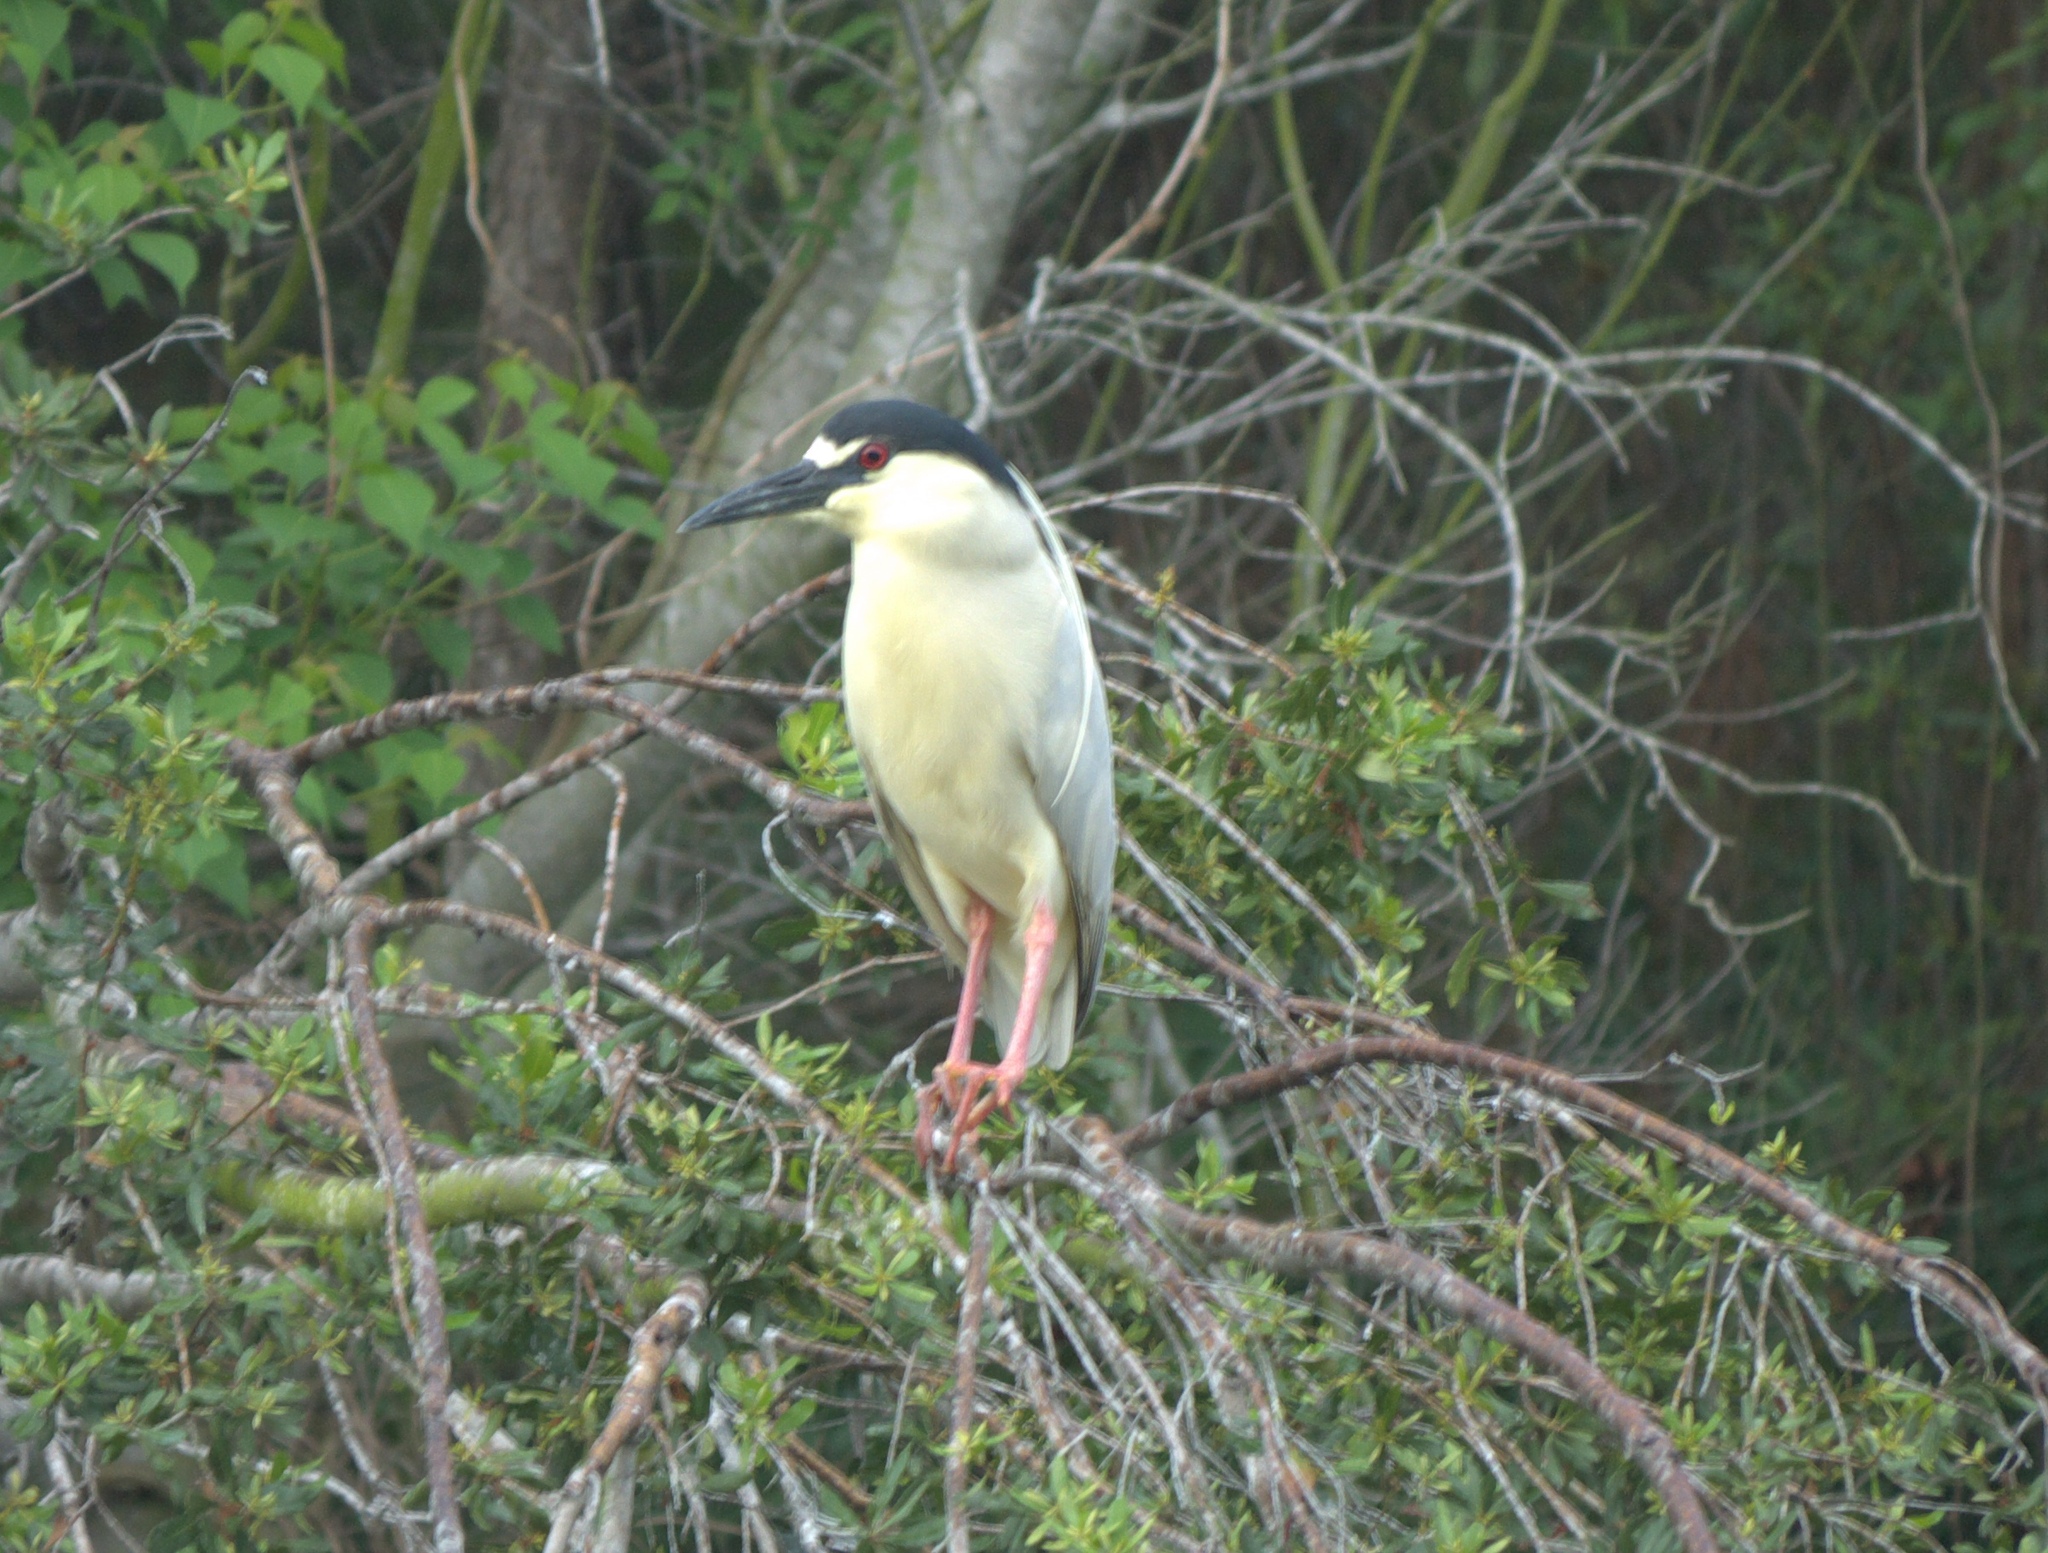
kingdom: Animalia
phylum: Chordata
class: Aves
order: Pelecaniformes
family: Ardeidae
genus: Nycticorax
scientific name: Nycticorax nycticorax
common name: Black-crowned night heron
